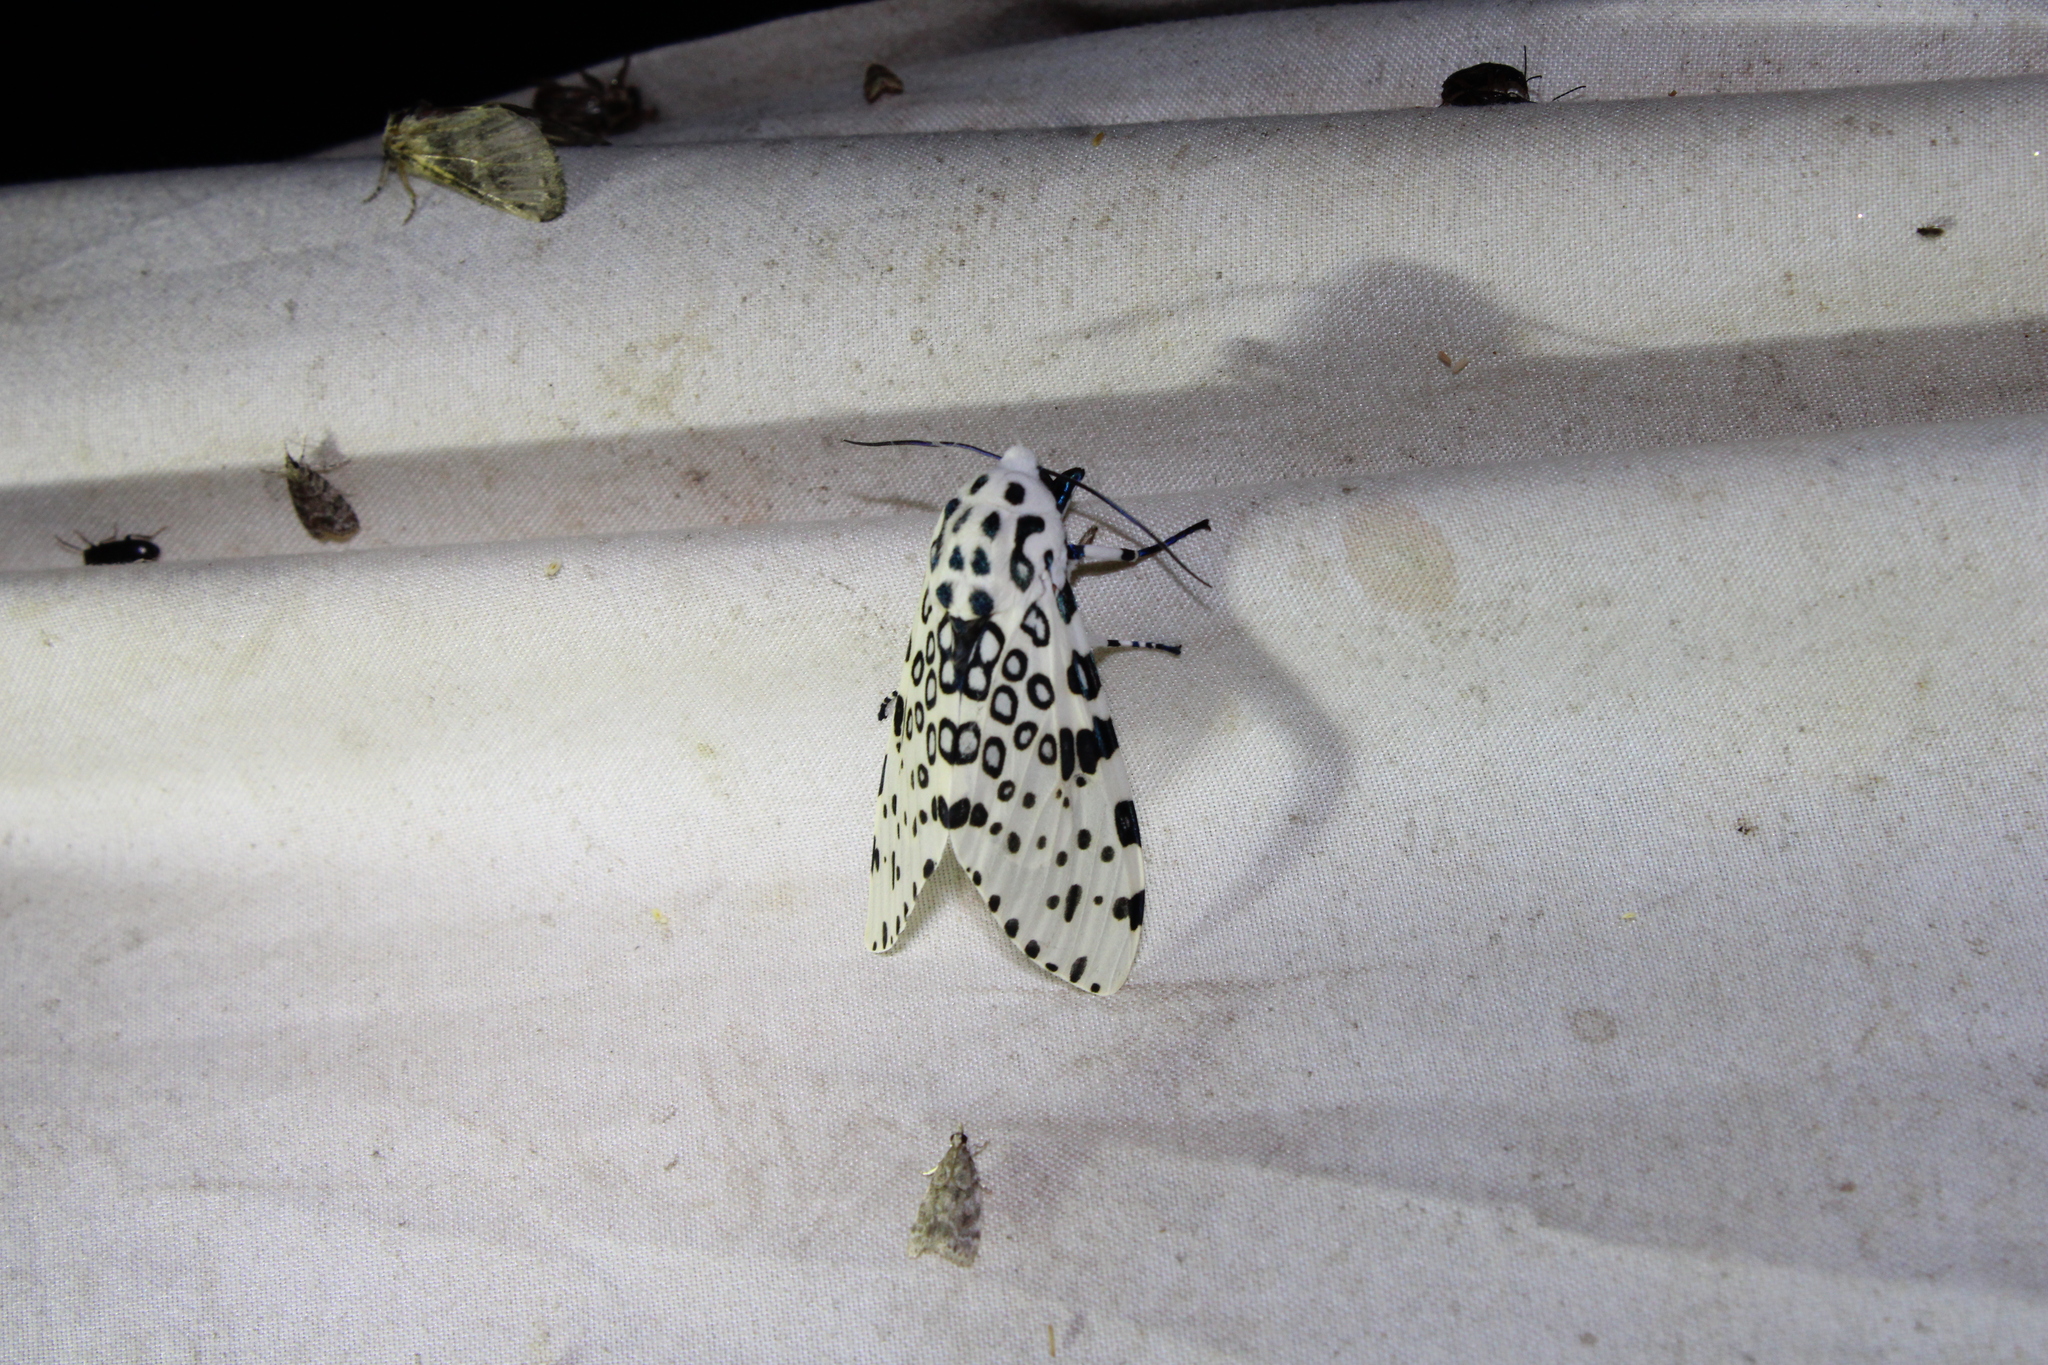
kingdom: Animalia
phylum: Arthropoda
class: Insecta
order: Lepidoptera
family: Erebidae
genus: Hypercompe
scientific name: Hypercompe scribonia
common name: Giant leopard moth
